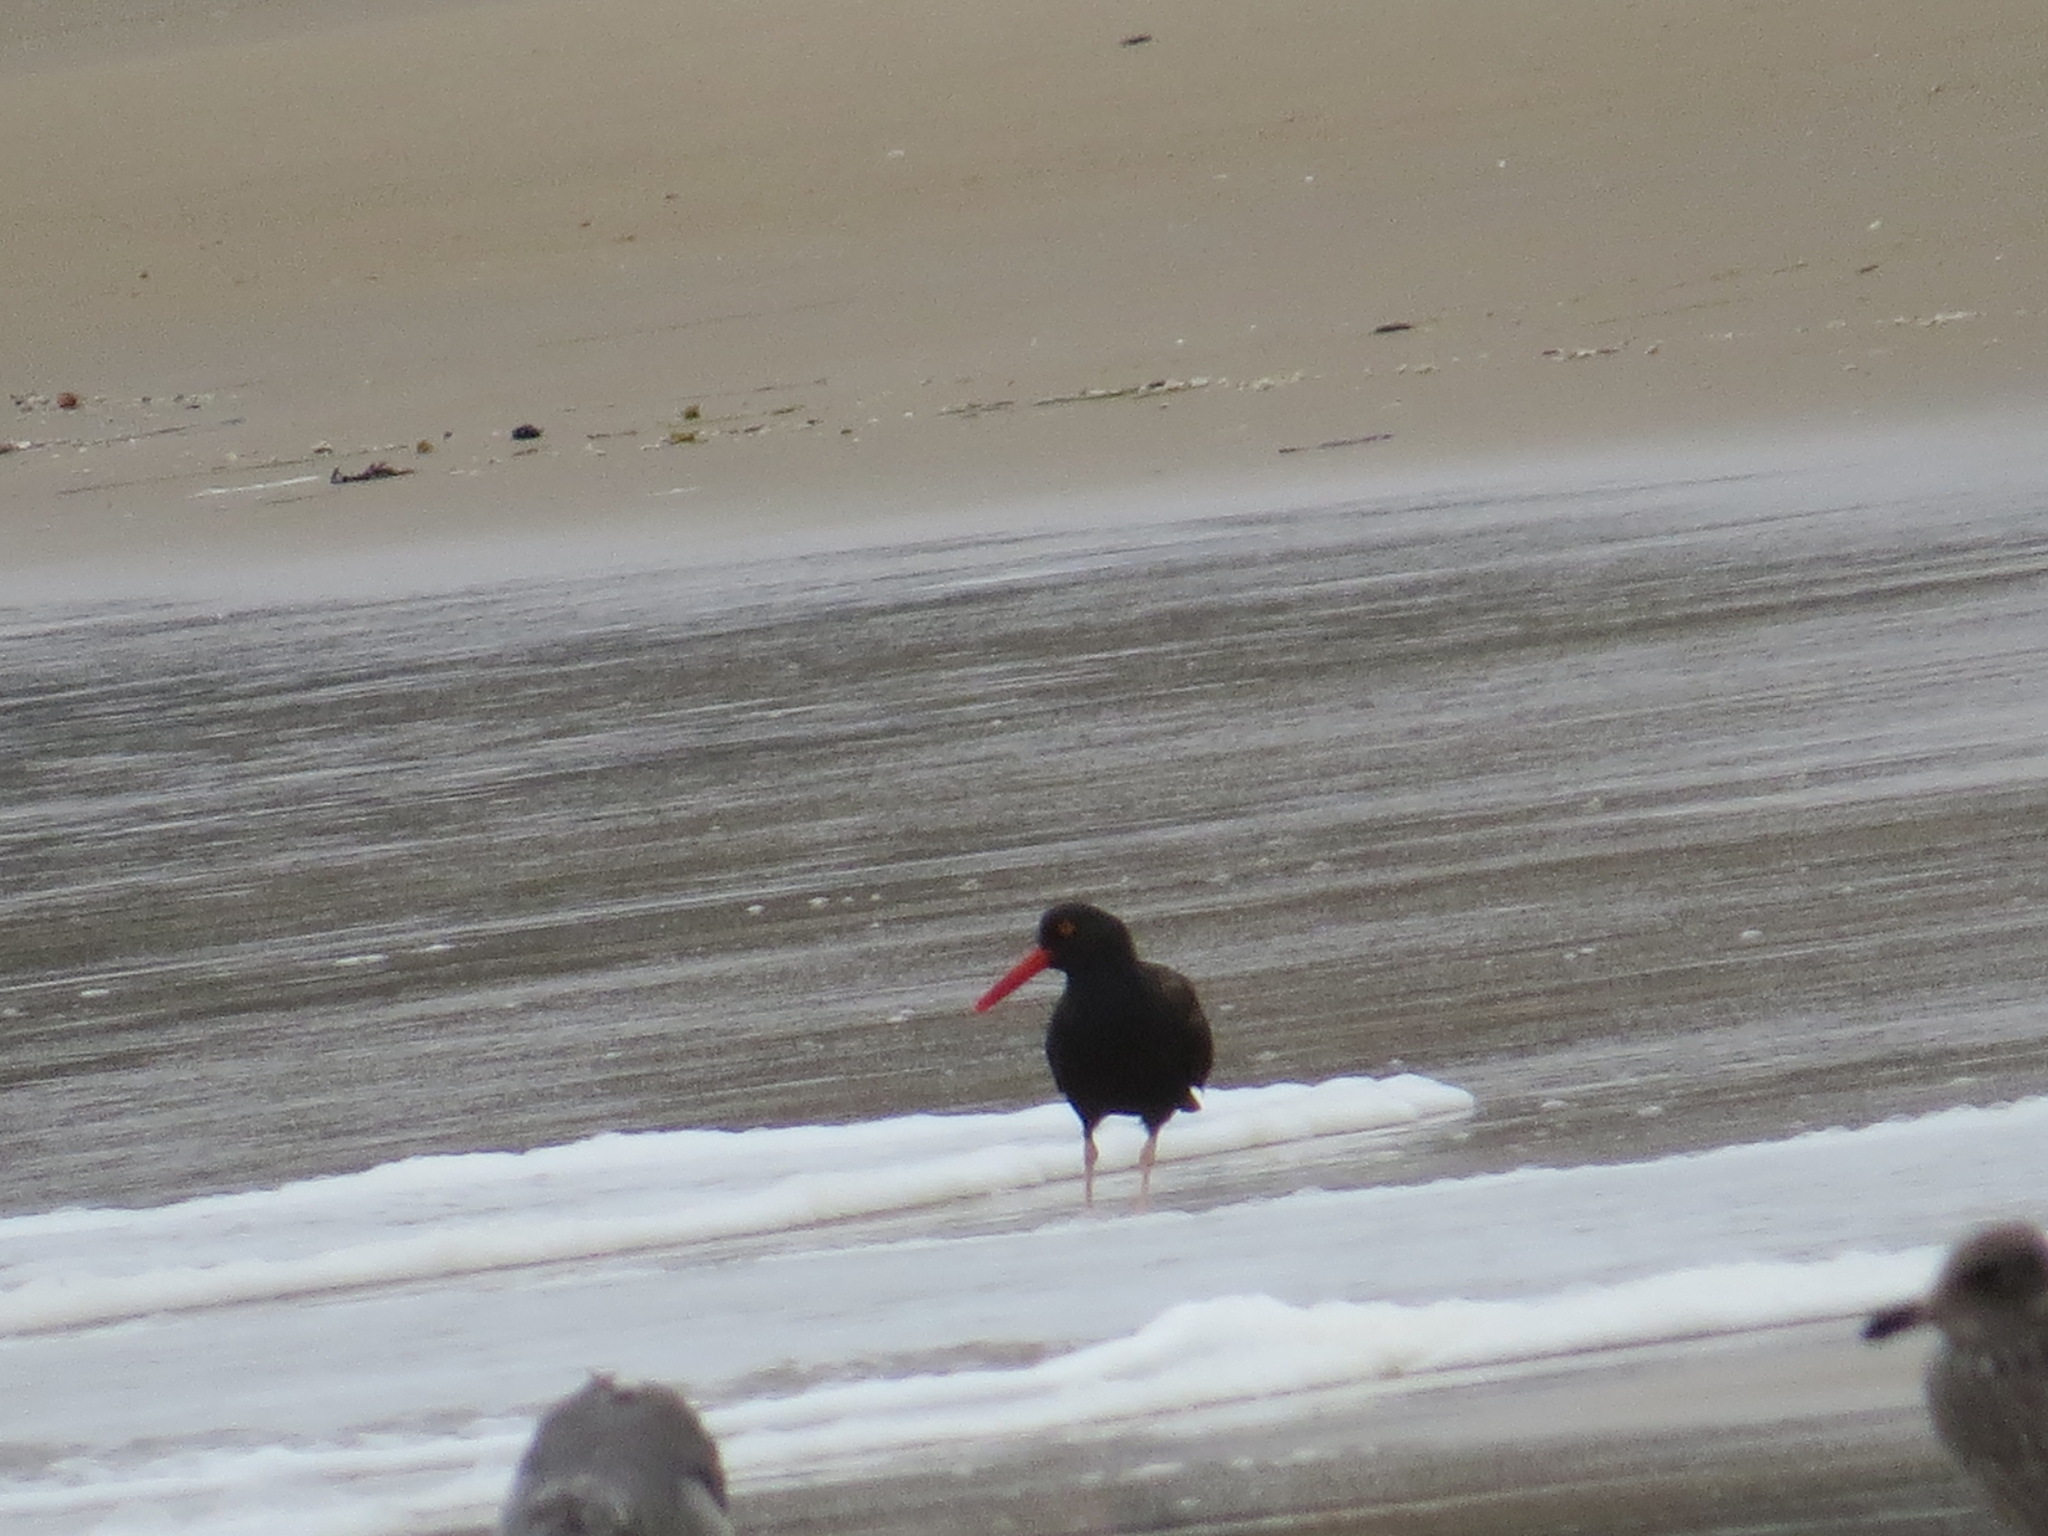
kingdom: Animalia
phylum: Chordata
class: Aves
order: Charadriiformes
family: Haematopodidae
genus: Haematopus
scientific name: Haematopus bachmani
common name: Black oystercatcher
